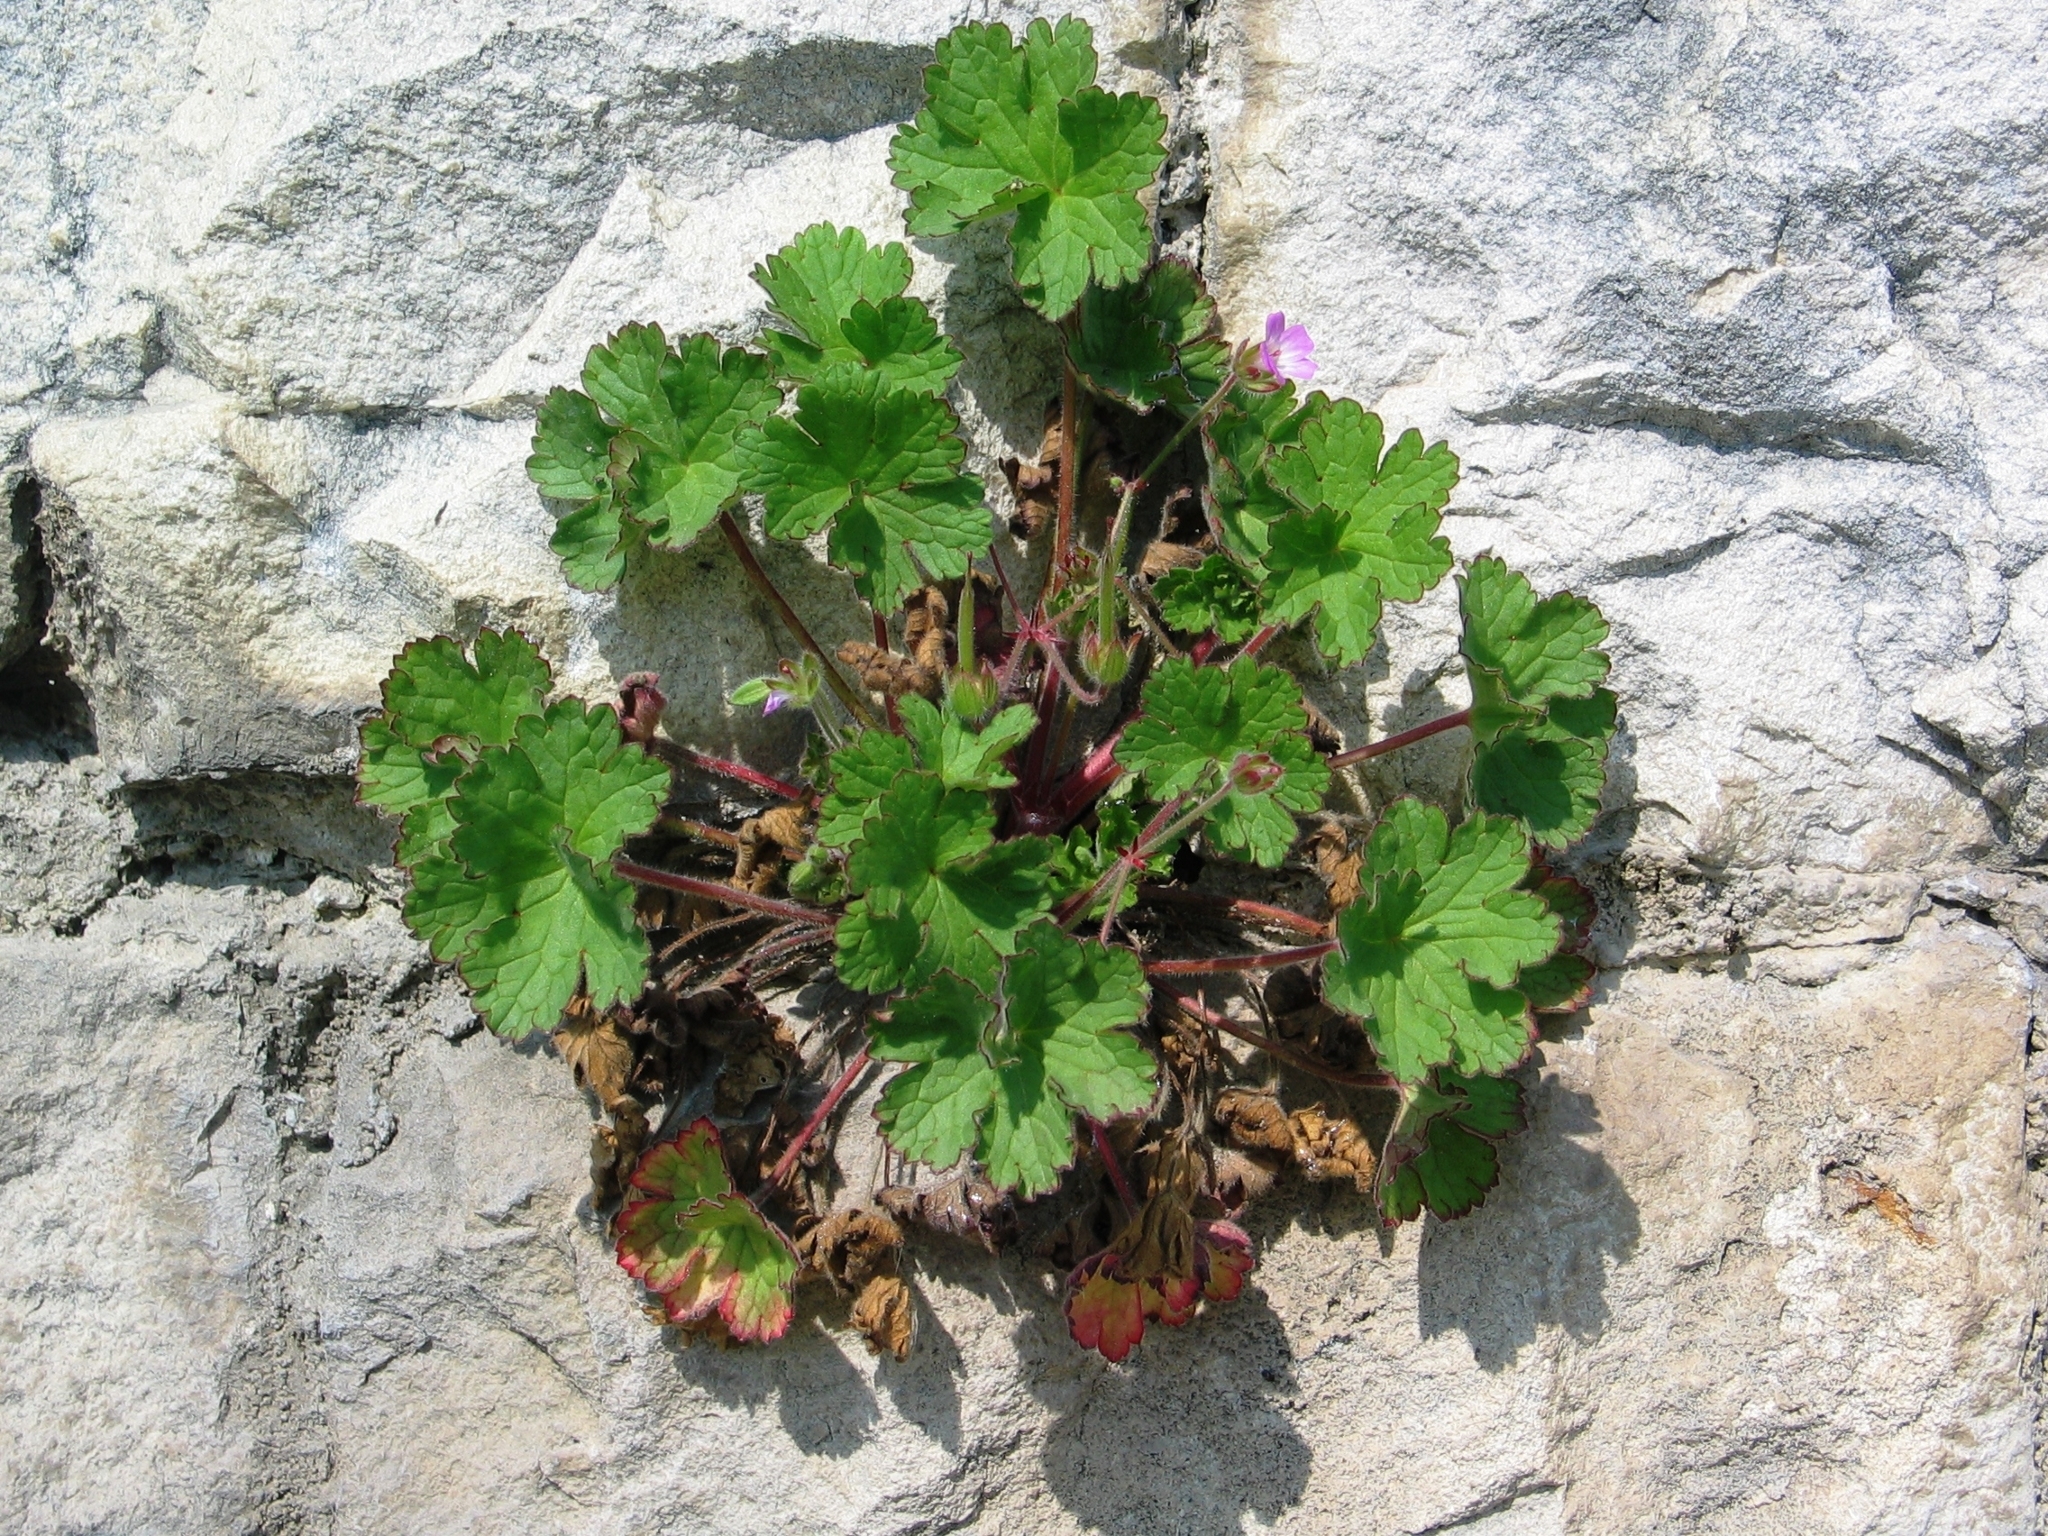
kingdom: Plantae
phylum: Tracheophyta
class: Magnoliopsida
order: Geraniales
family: Geraniaceae
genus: Geranium
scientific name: Geranium rotundifolium
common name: Round-leaved crane's-bill
